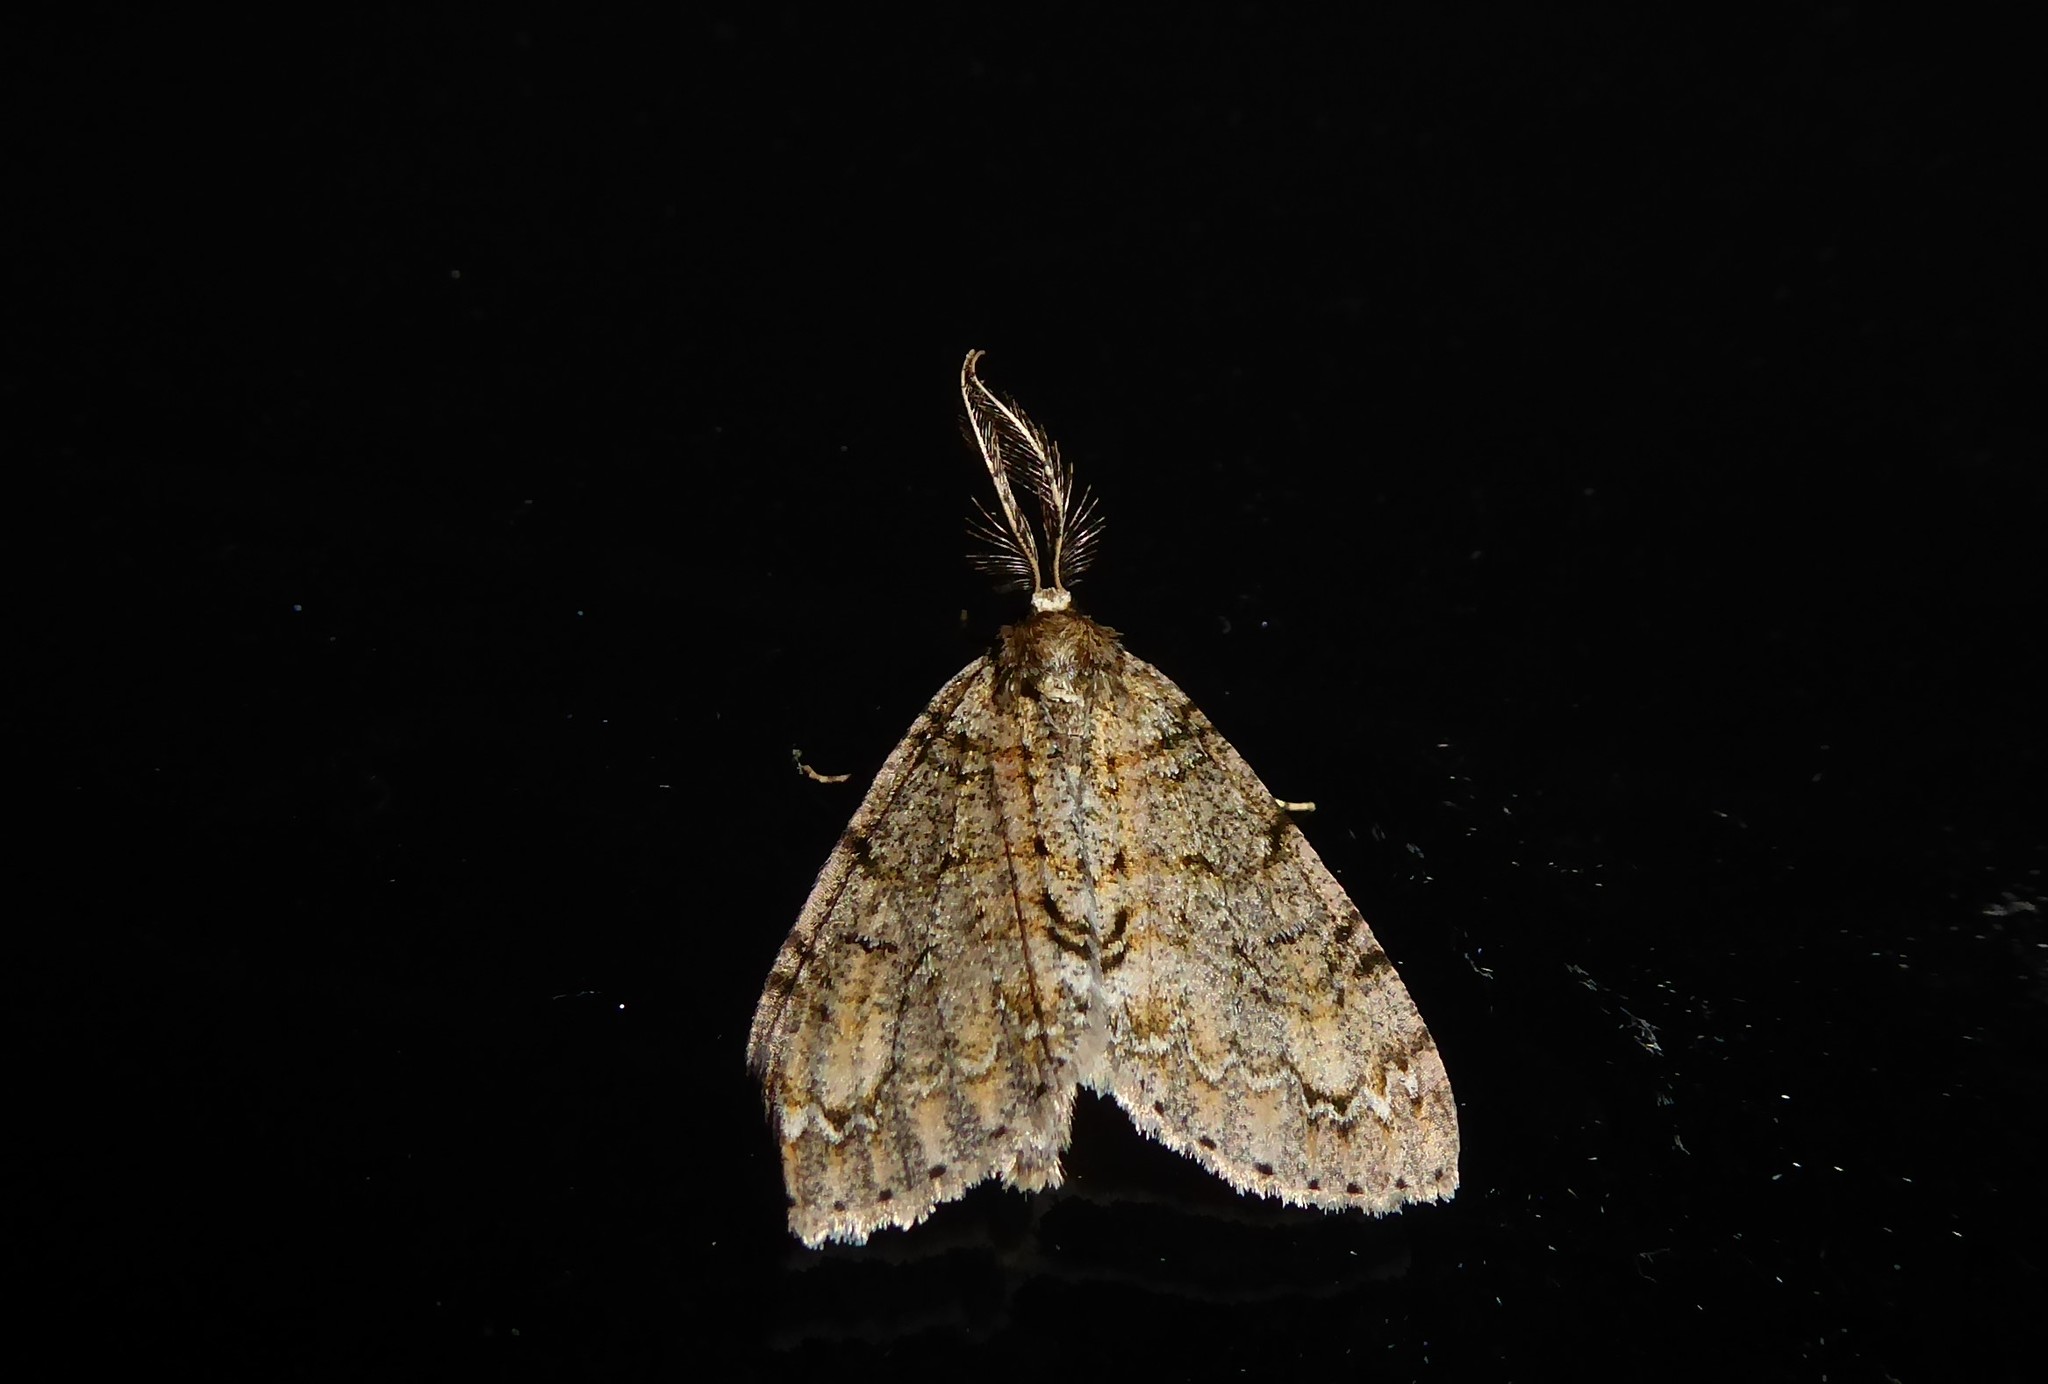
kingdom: Animalia
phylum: Arthropoda
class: Insecta
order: Lepidoptera
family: Geometridae
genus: Pseudocoremia
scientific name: Pseudocoremia suavis
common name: Common forest looper
